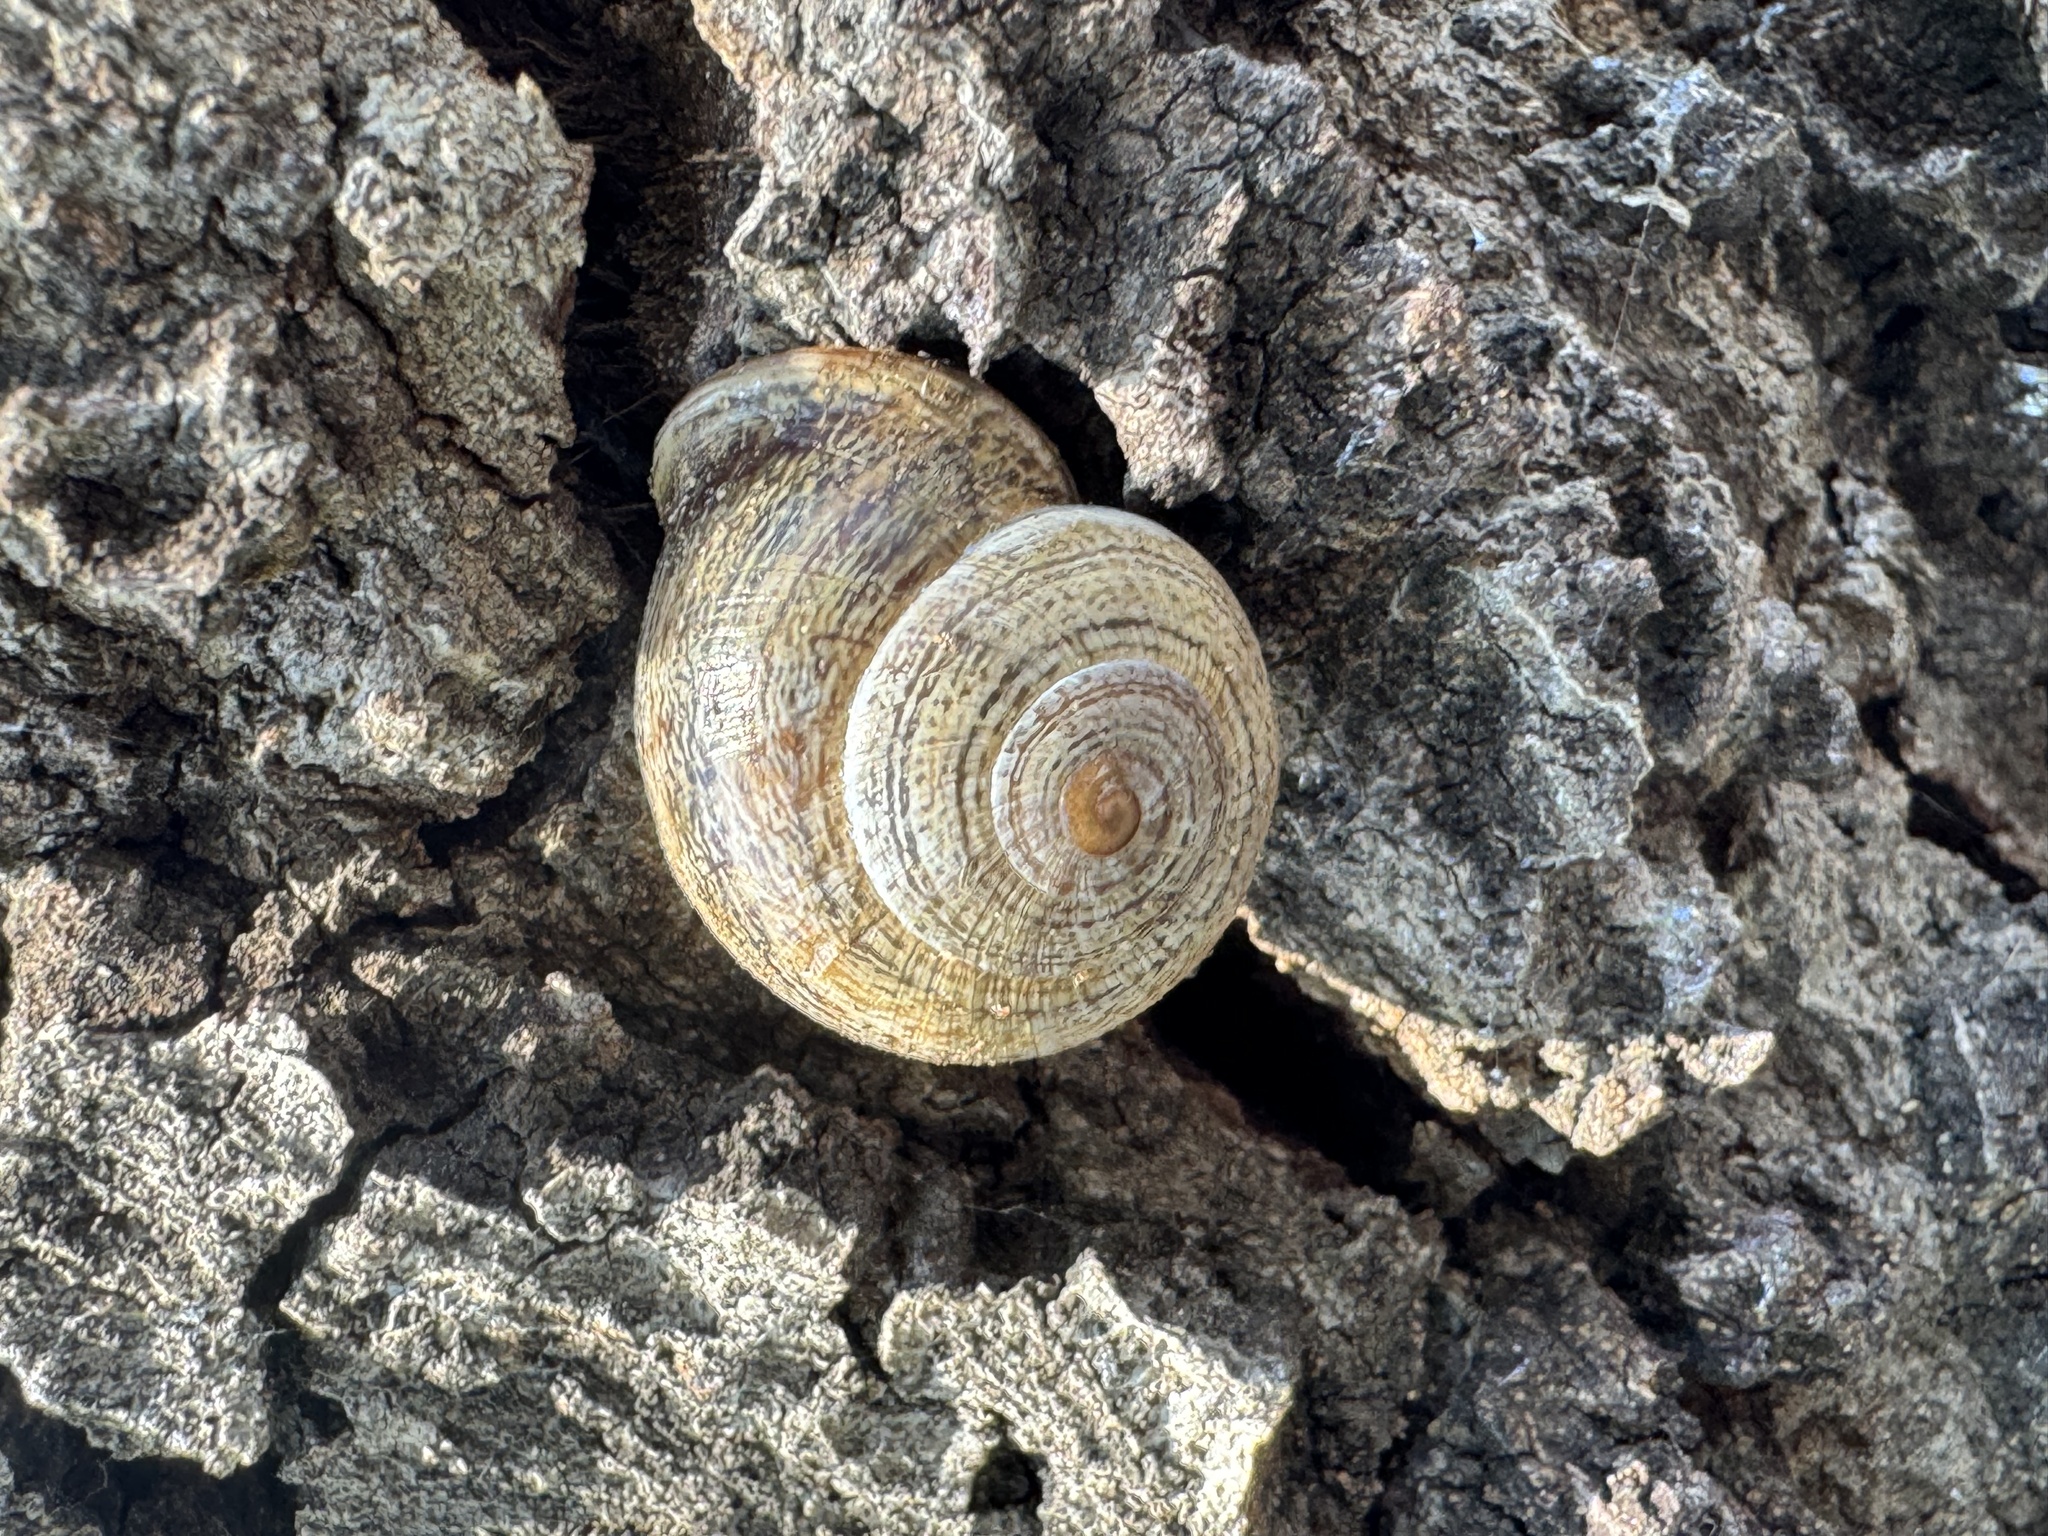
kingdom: Animalia
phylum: Mollusca
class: Gastropoda
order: Stylommatophora
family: Helicidae
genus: Otala
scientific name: Otala lactea
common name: Milk snail
